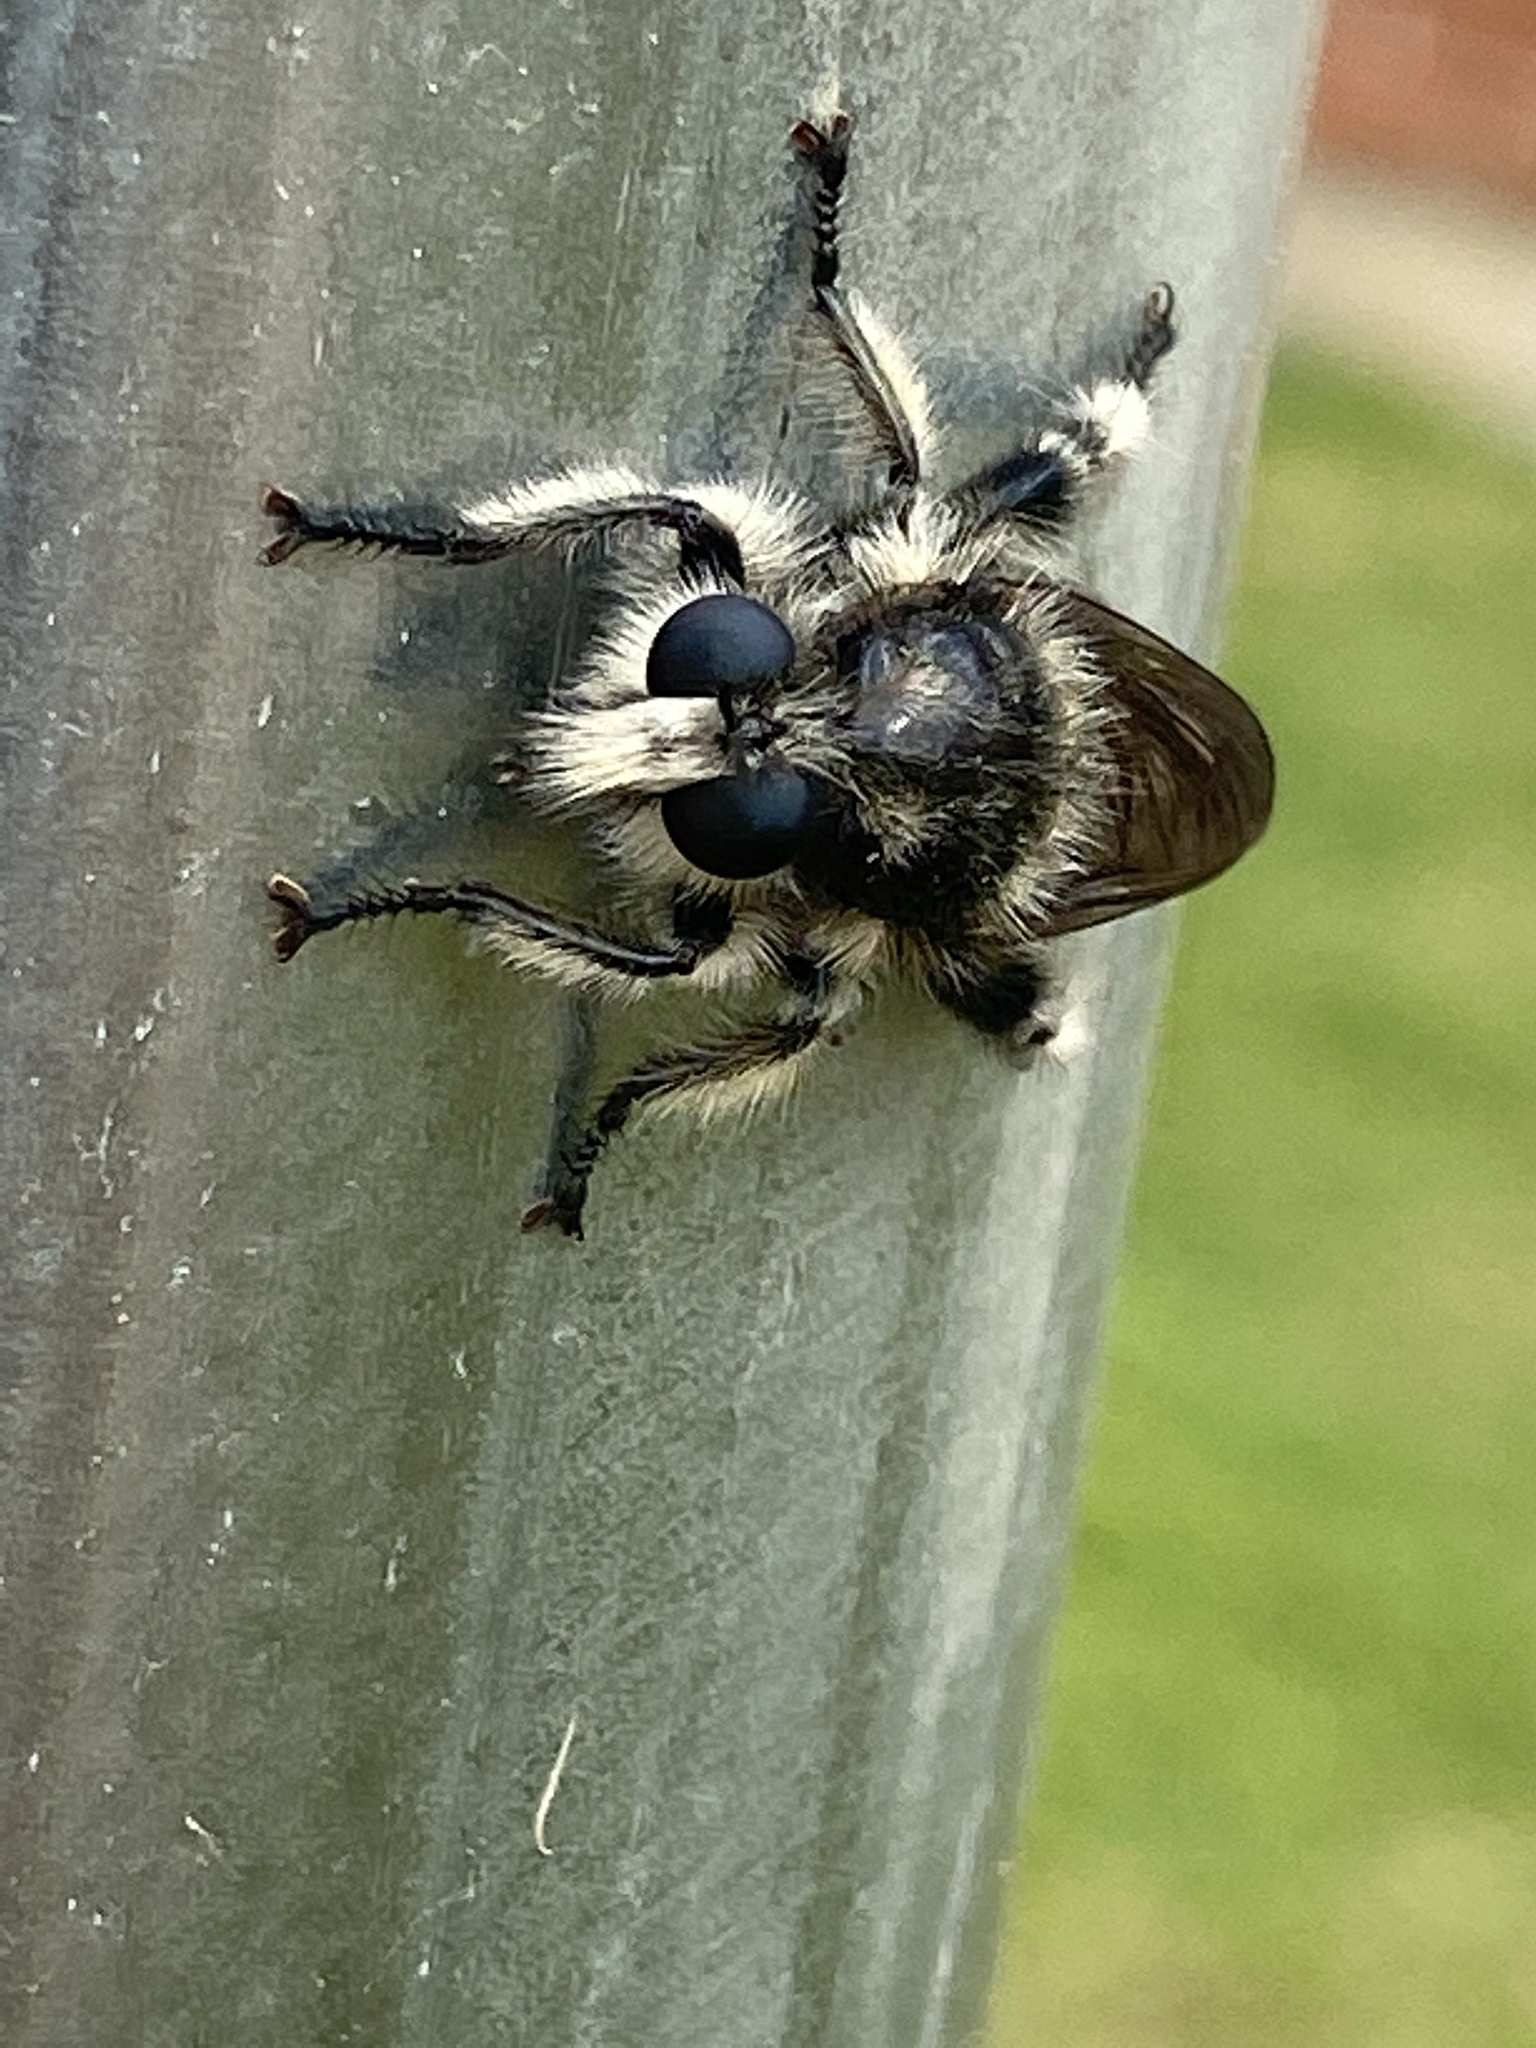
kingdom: Animalia
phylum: Arthropoda
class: Insecta
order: Diptera
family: Asilidae
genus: Laphria
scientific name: Laphria cinerea
